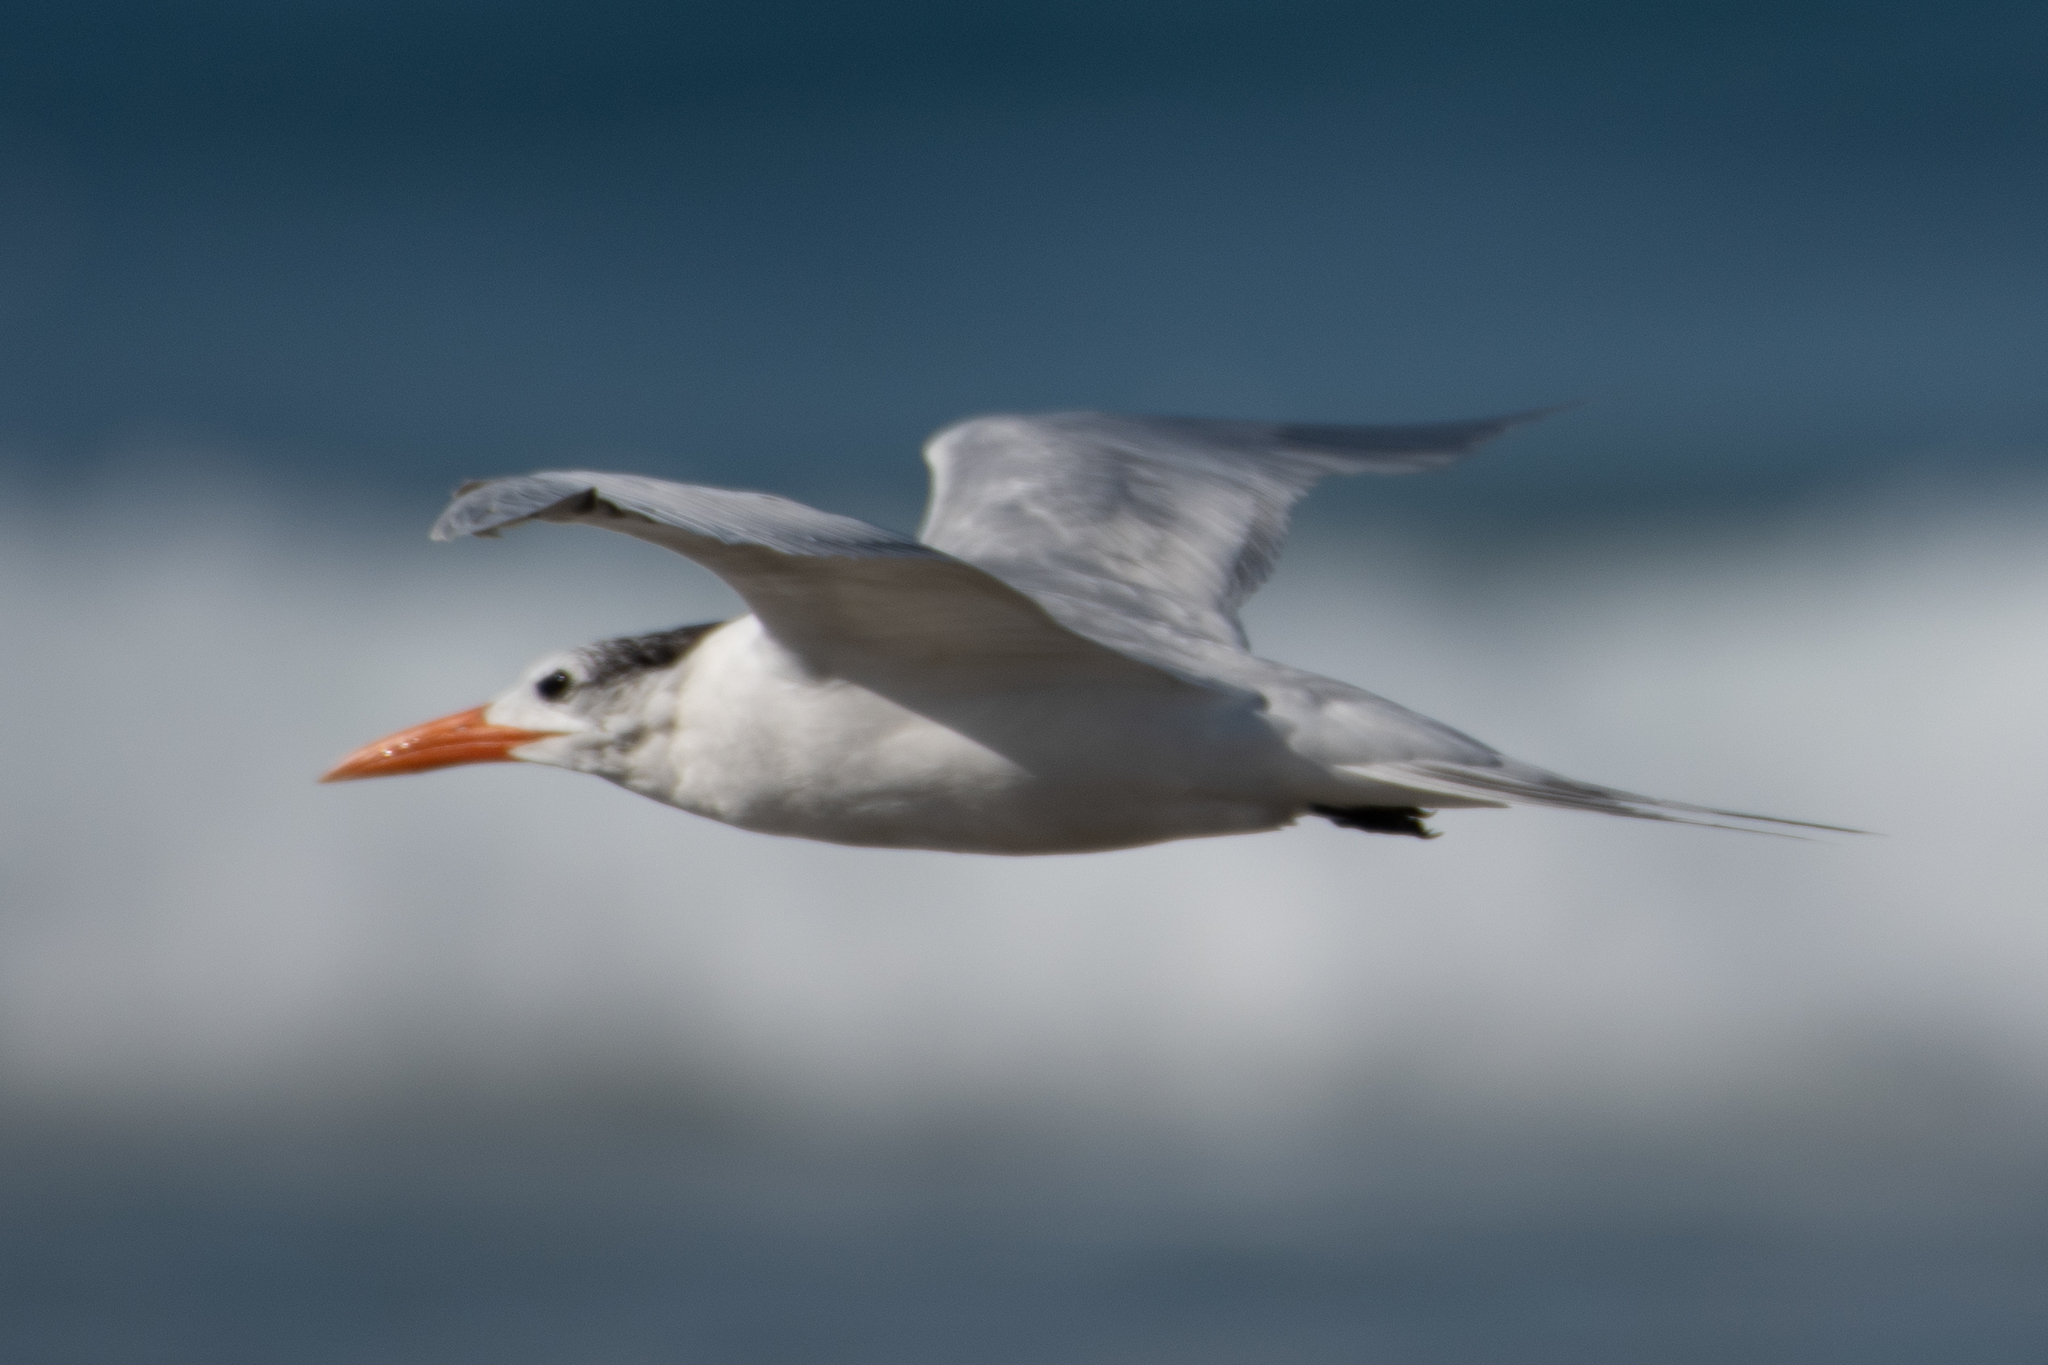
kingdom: Animalia
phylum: Chordata
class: Aves
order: Charadriiformes
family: Laridae
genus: Thalasseus
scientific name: Thalasseus maximus
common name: Royal tern
